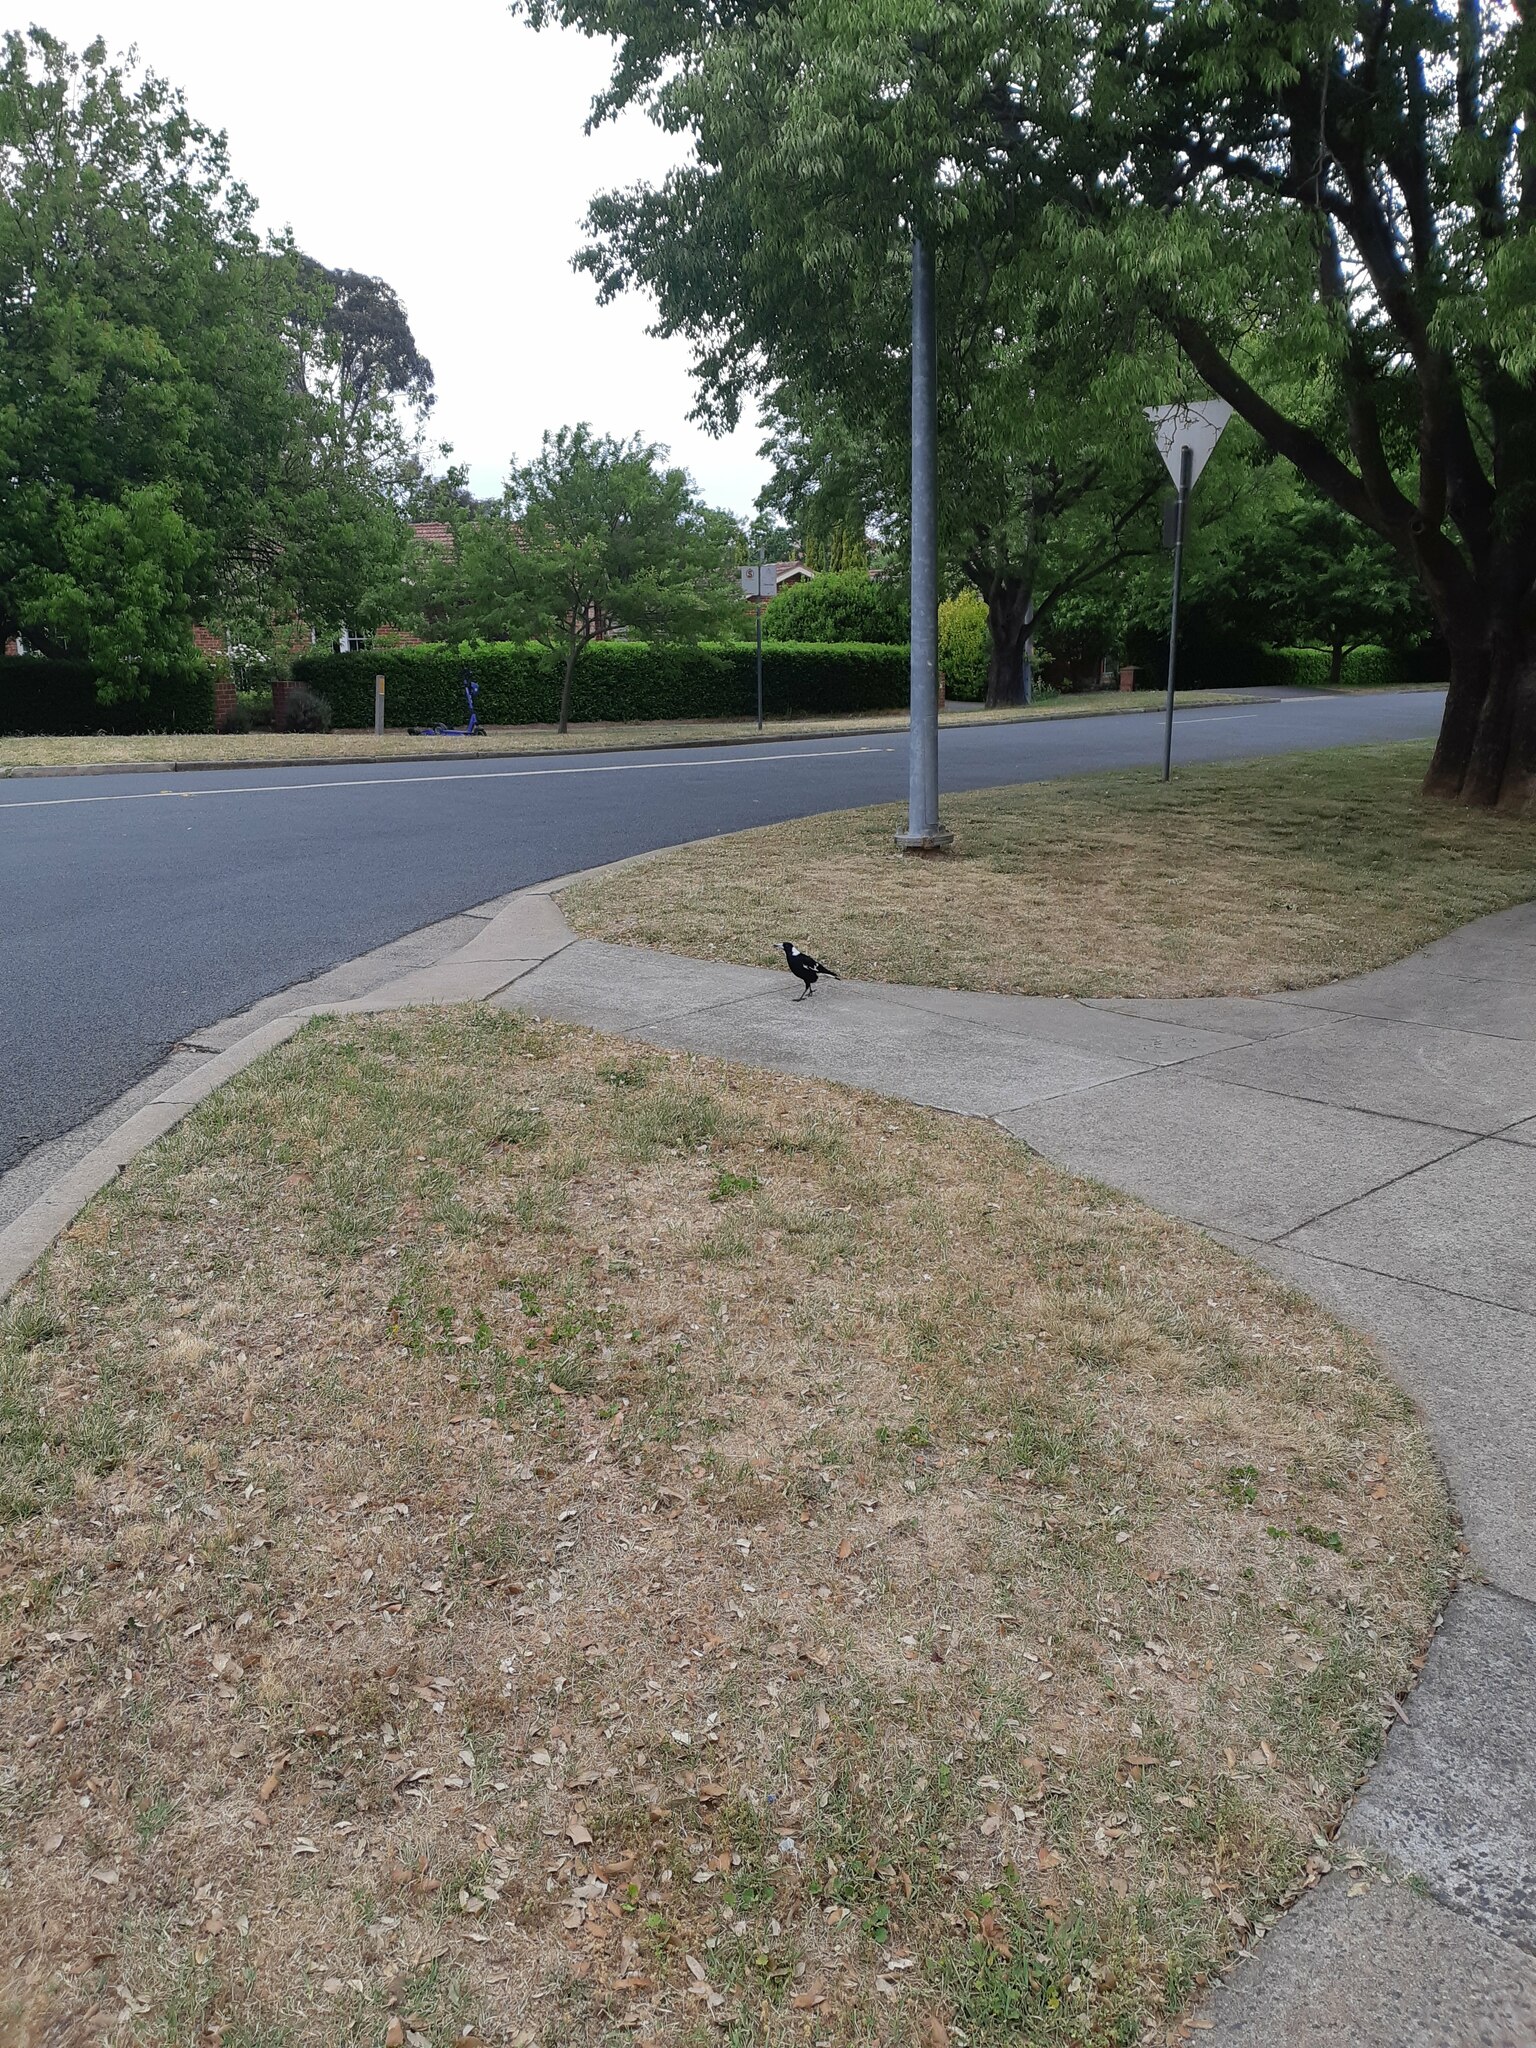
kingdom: Animalia
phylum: Chordata
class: Aves
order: Passeriformes
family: Cracticidae
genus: Gymnorhina
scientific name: Gymnorhina tibicen
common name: Australian magpie
